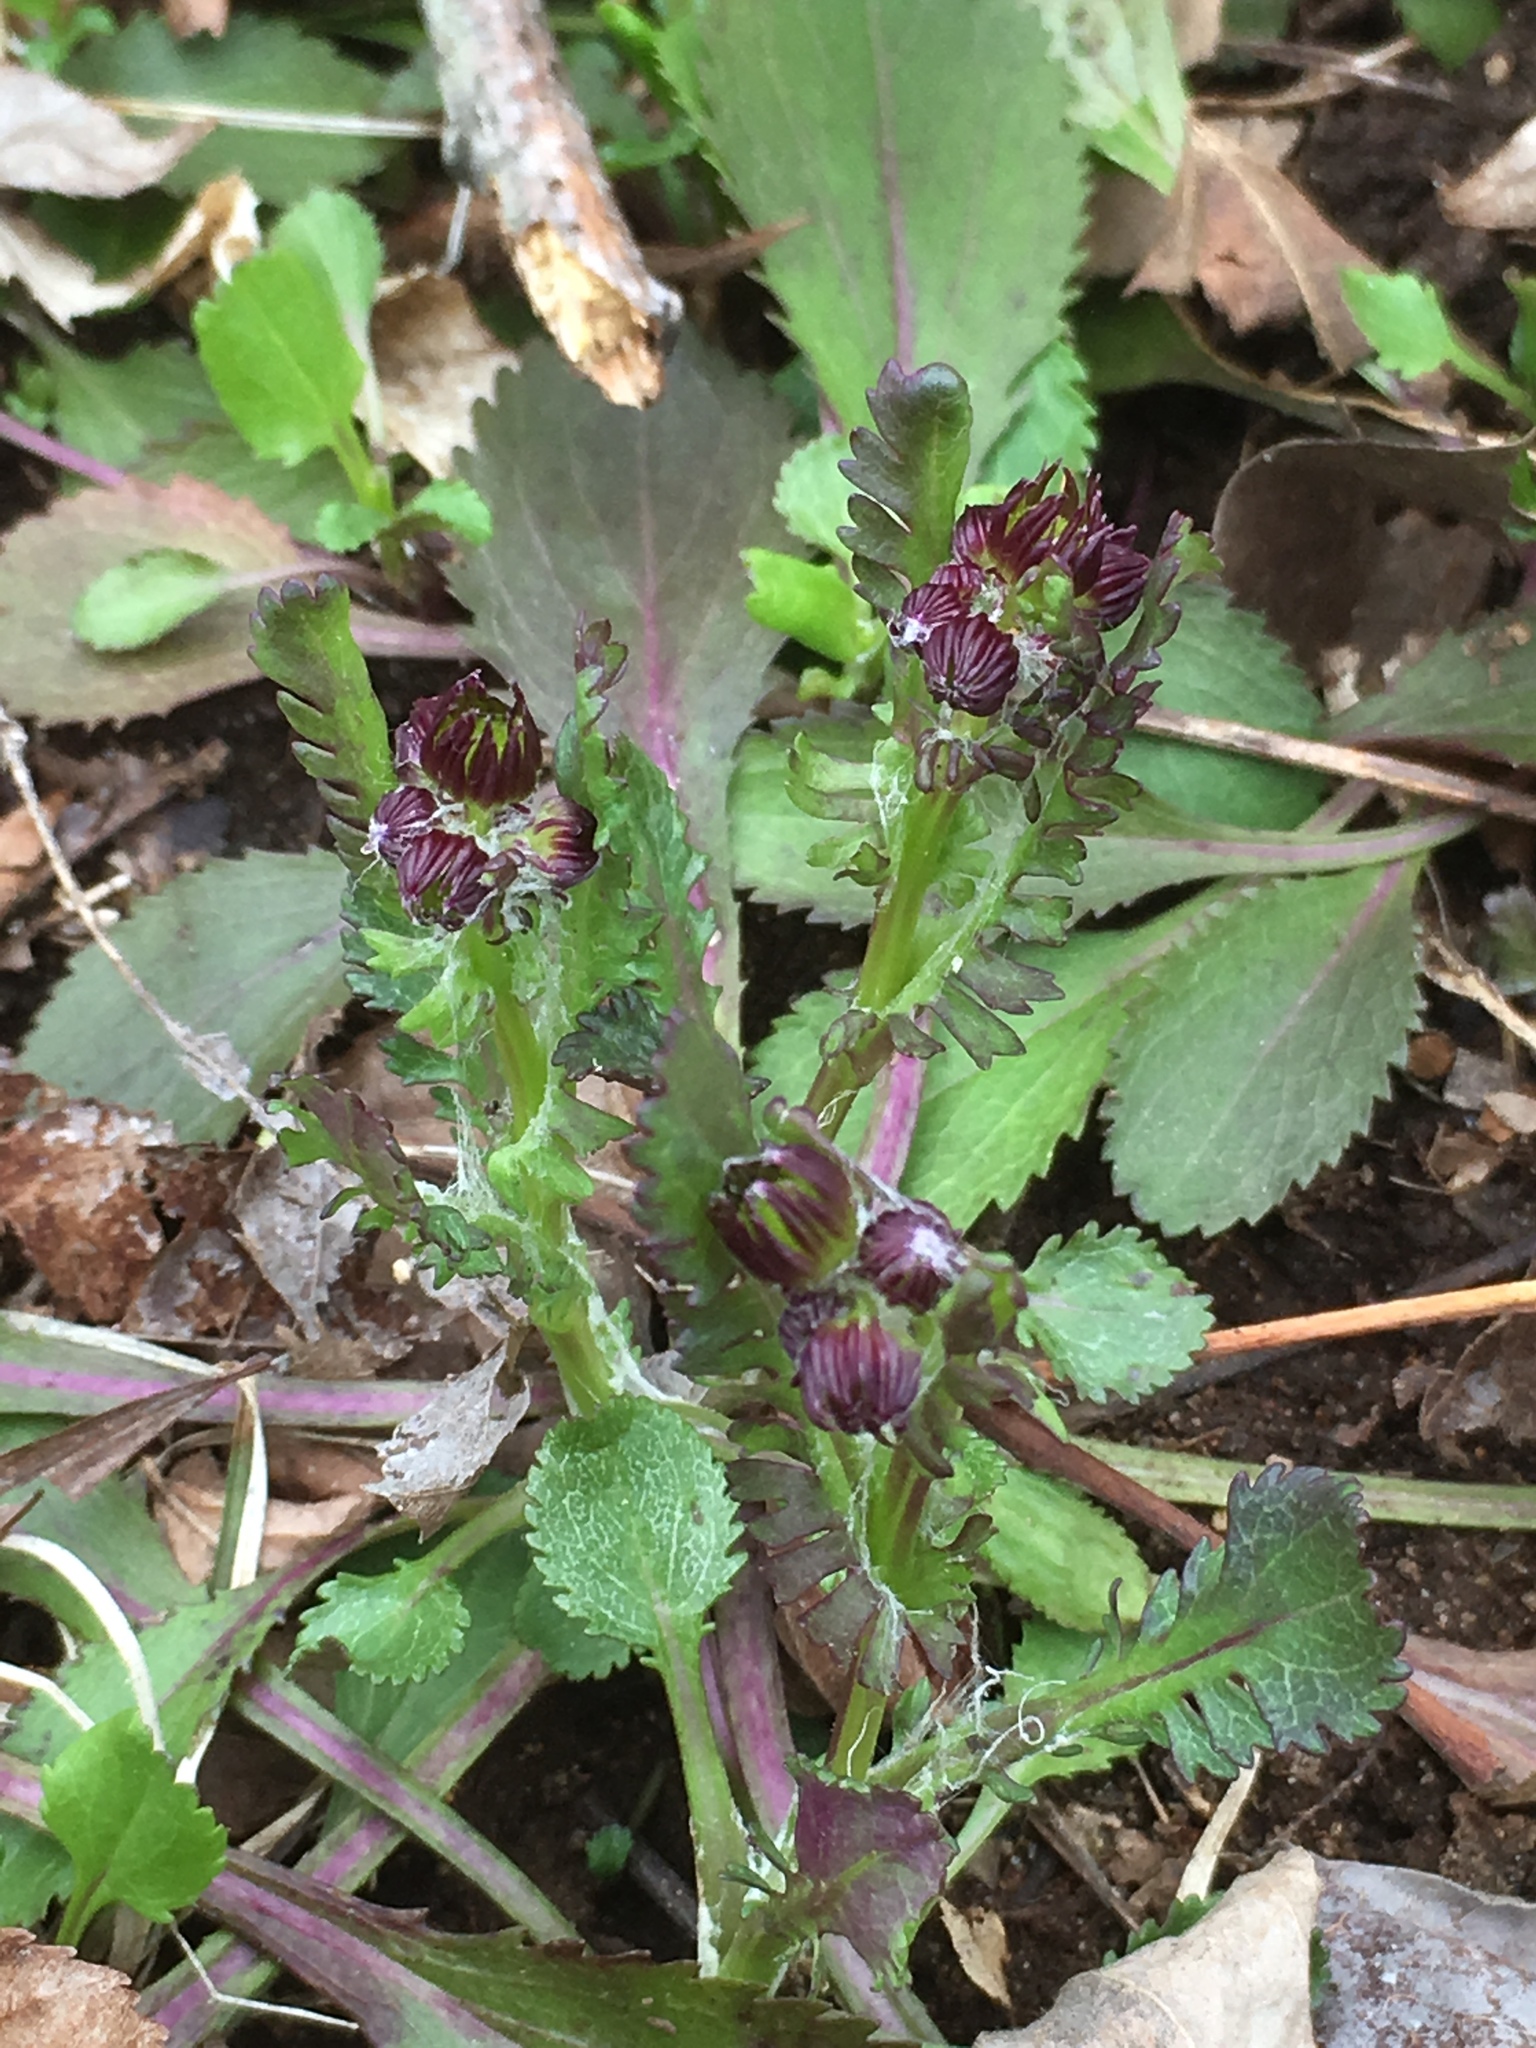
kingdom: Plantae
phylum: Tracheophyta
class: Magnoliopsida
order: Asterales
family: Asteraceae
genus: Packera
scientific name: Packera aurea
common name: Golden groundsel
